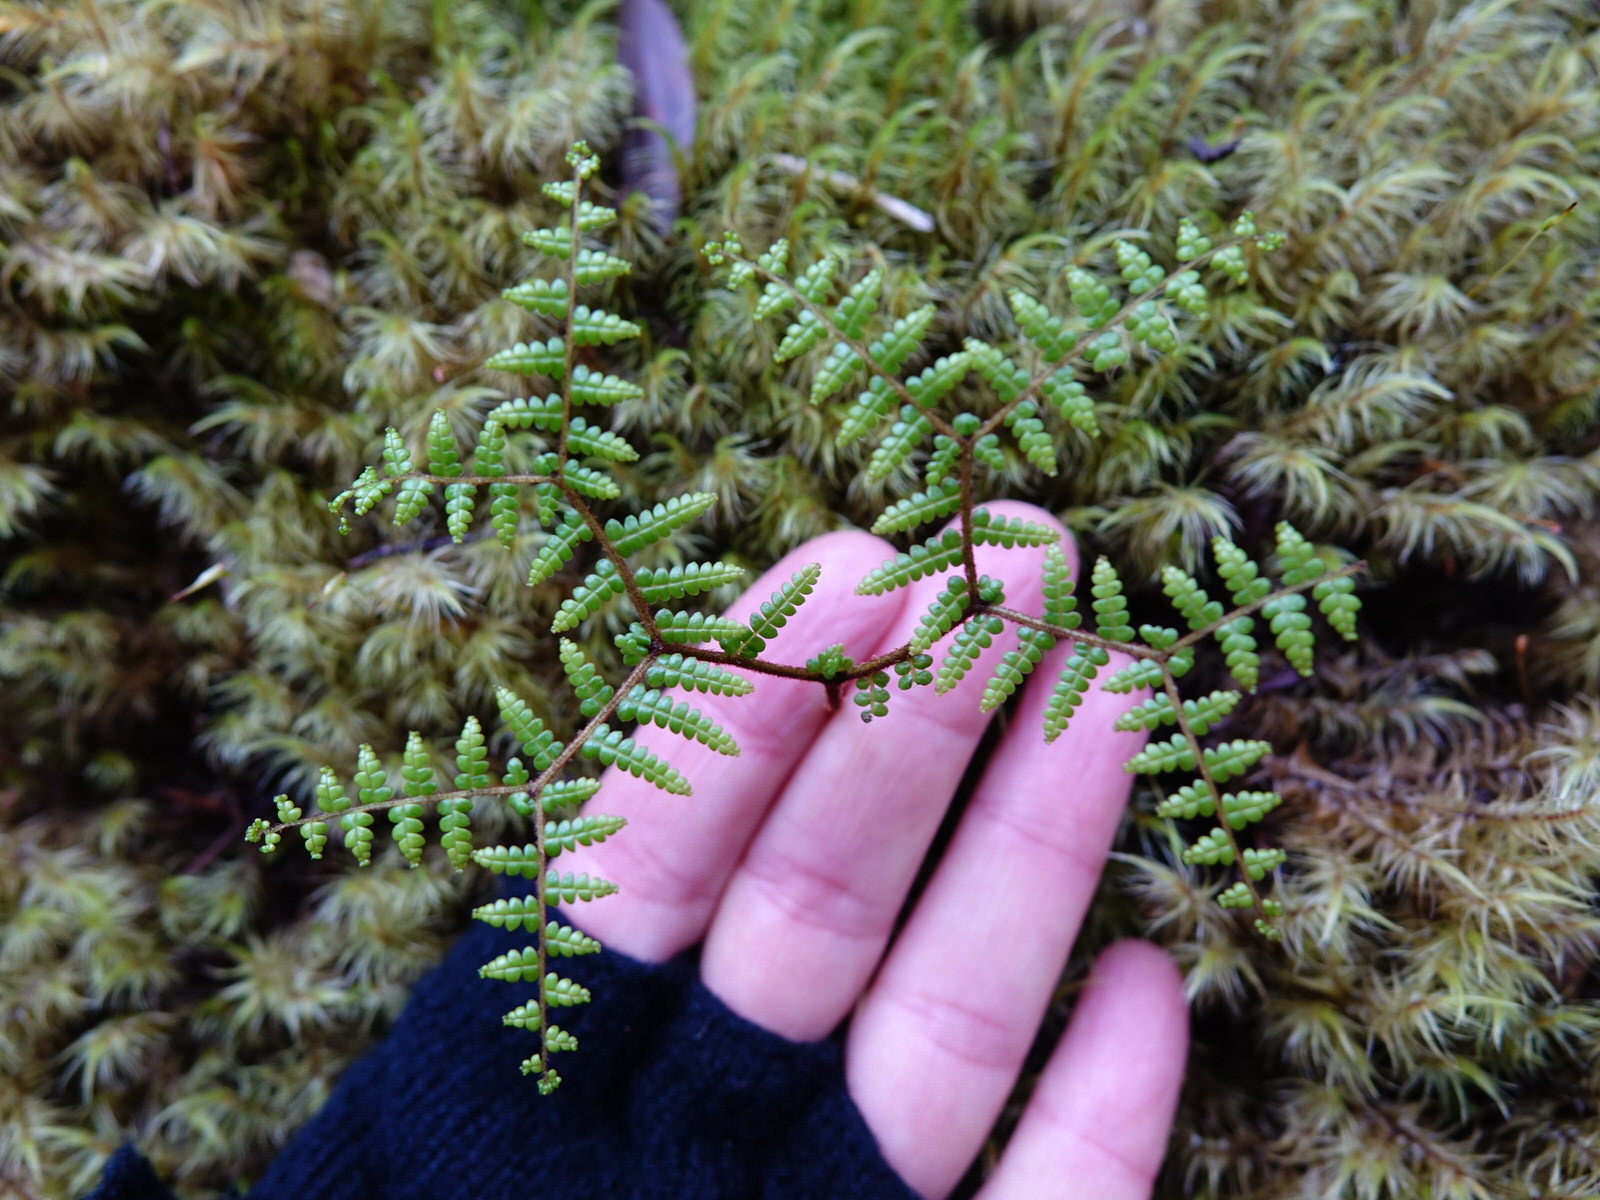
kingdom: Plantae
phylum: Tracheophyta
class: Polypodiopsida
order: Gleicheniales
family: Gleicheniaceae
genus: Gleichenia
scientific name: Gleichenia microphylla
